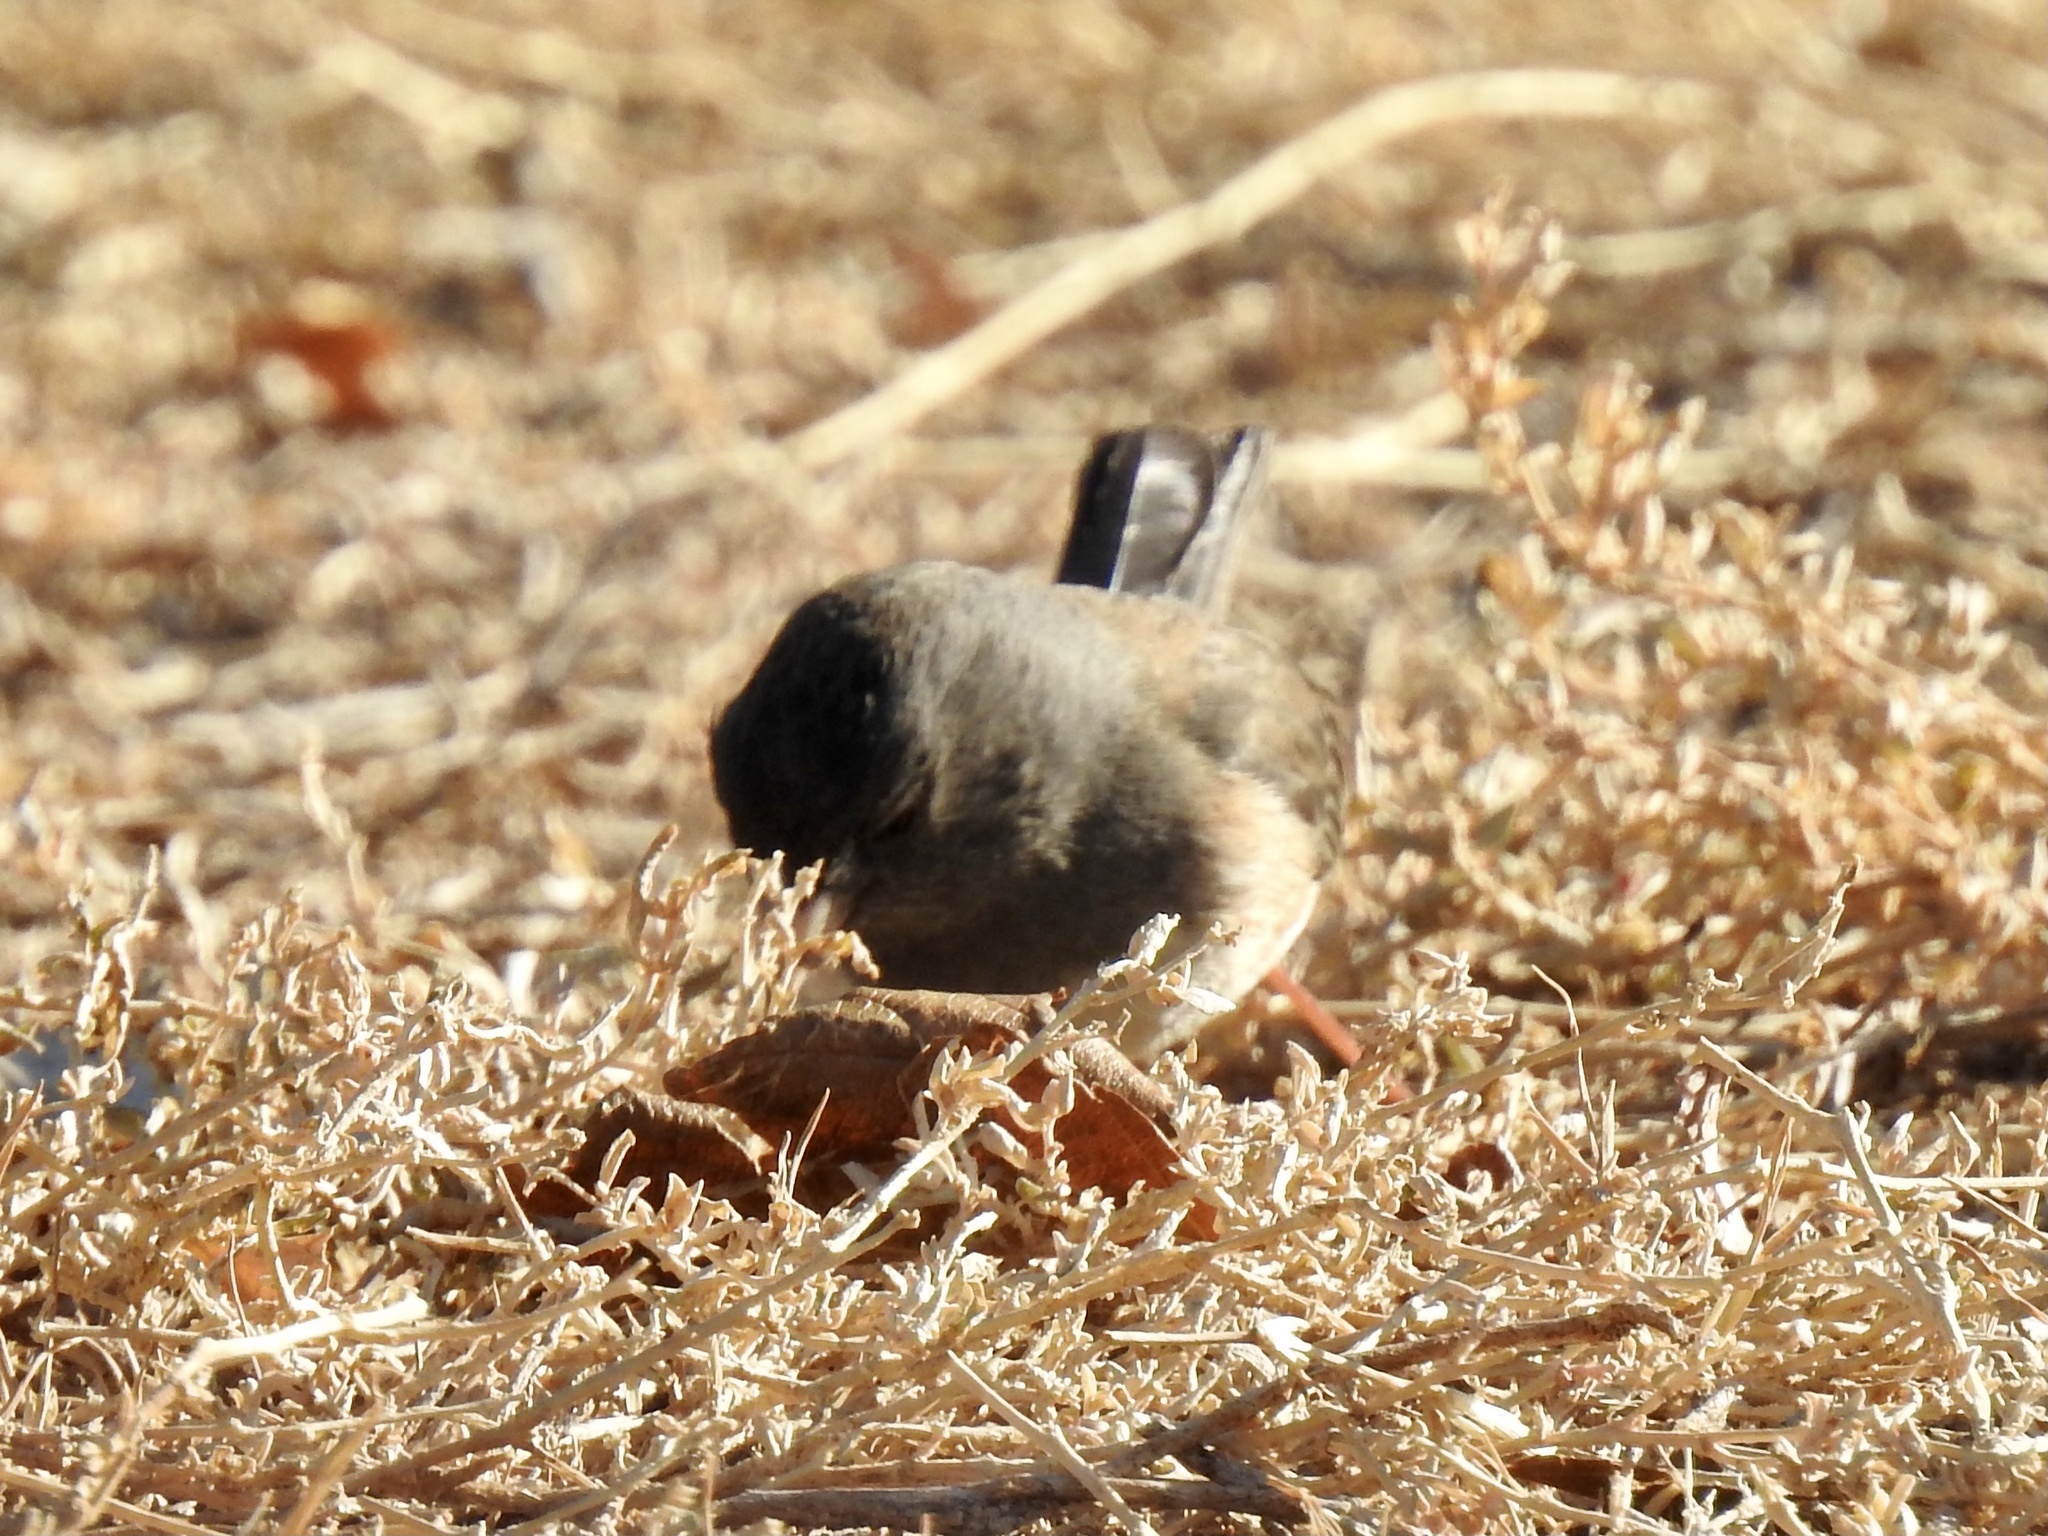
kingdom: Animalia
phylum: Chordata
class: Aves
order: Passeriformes
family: Passerellidae
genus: Junco
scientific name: Junco hyemalis
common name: Dark-eyed junco
